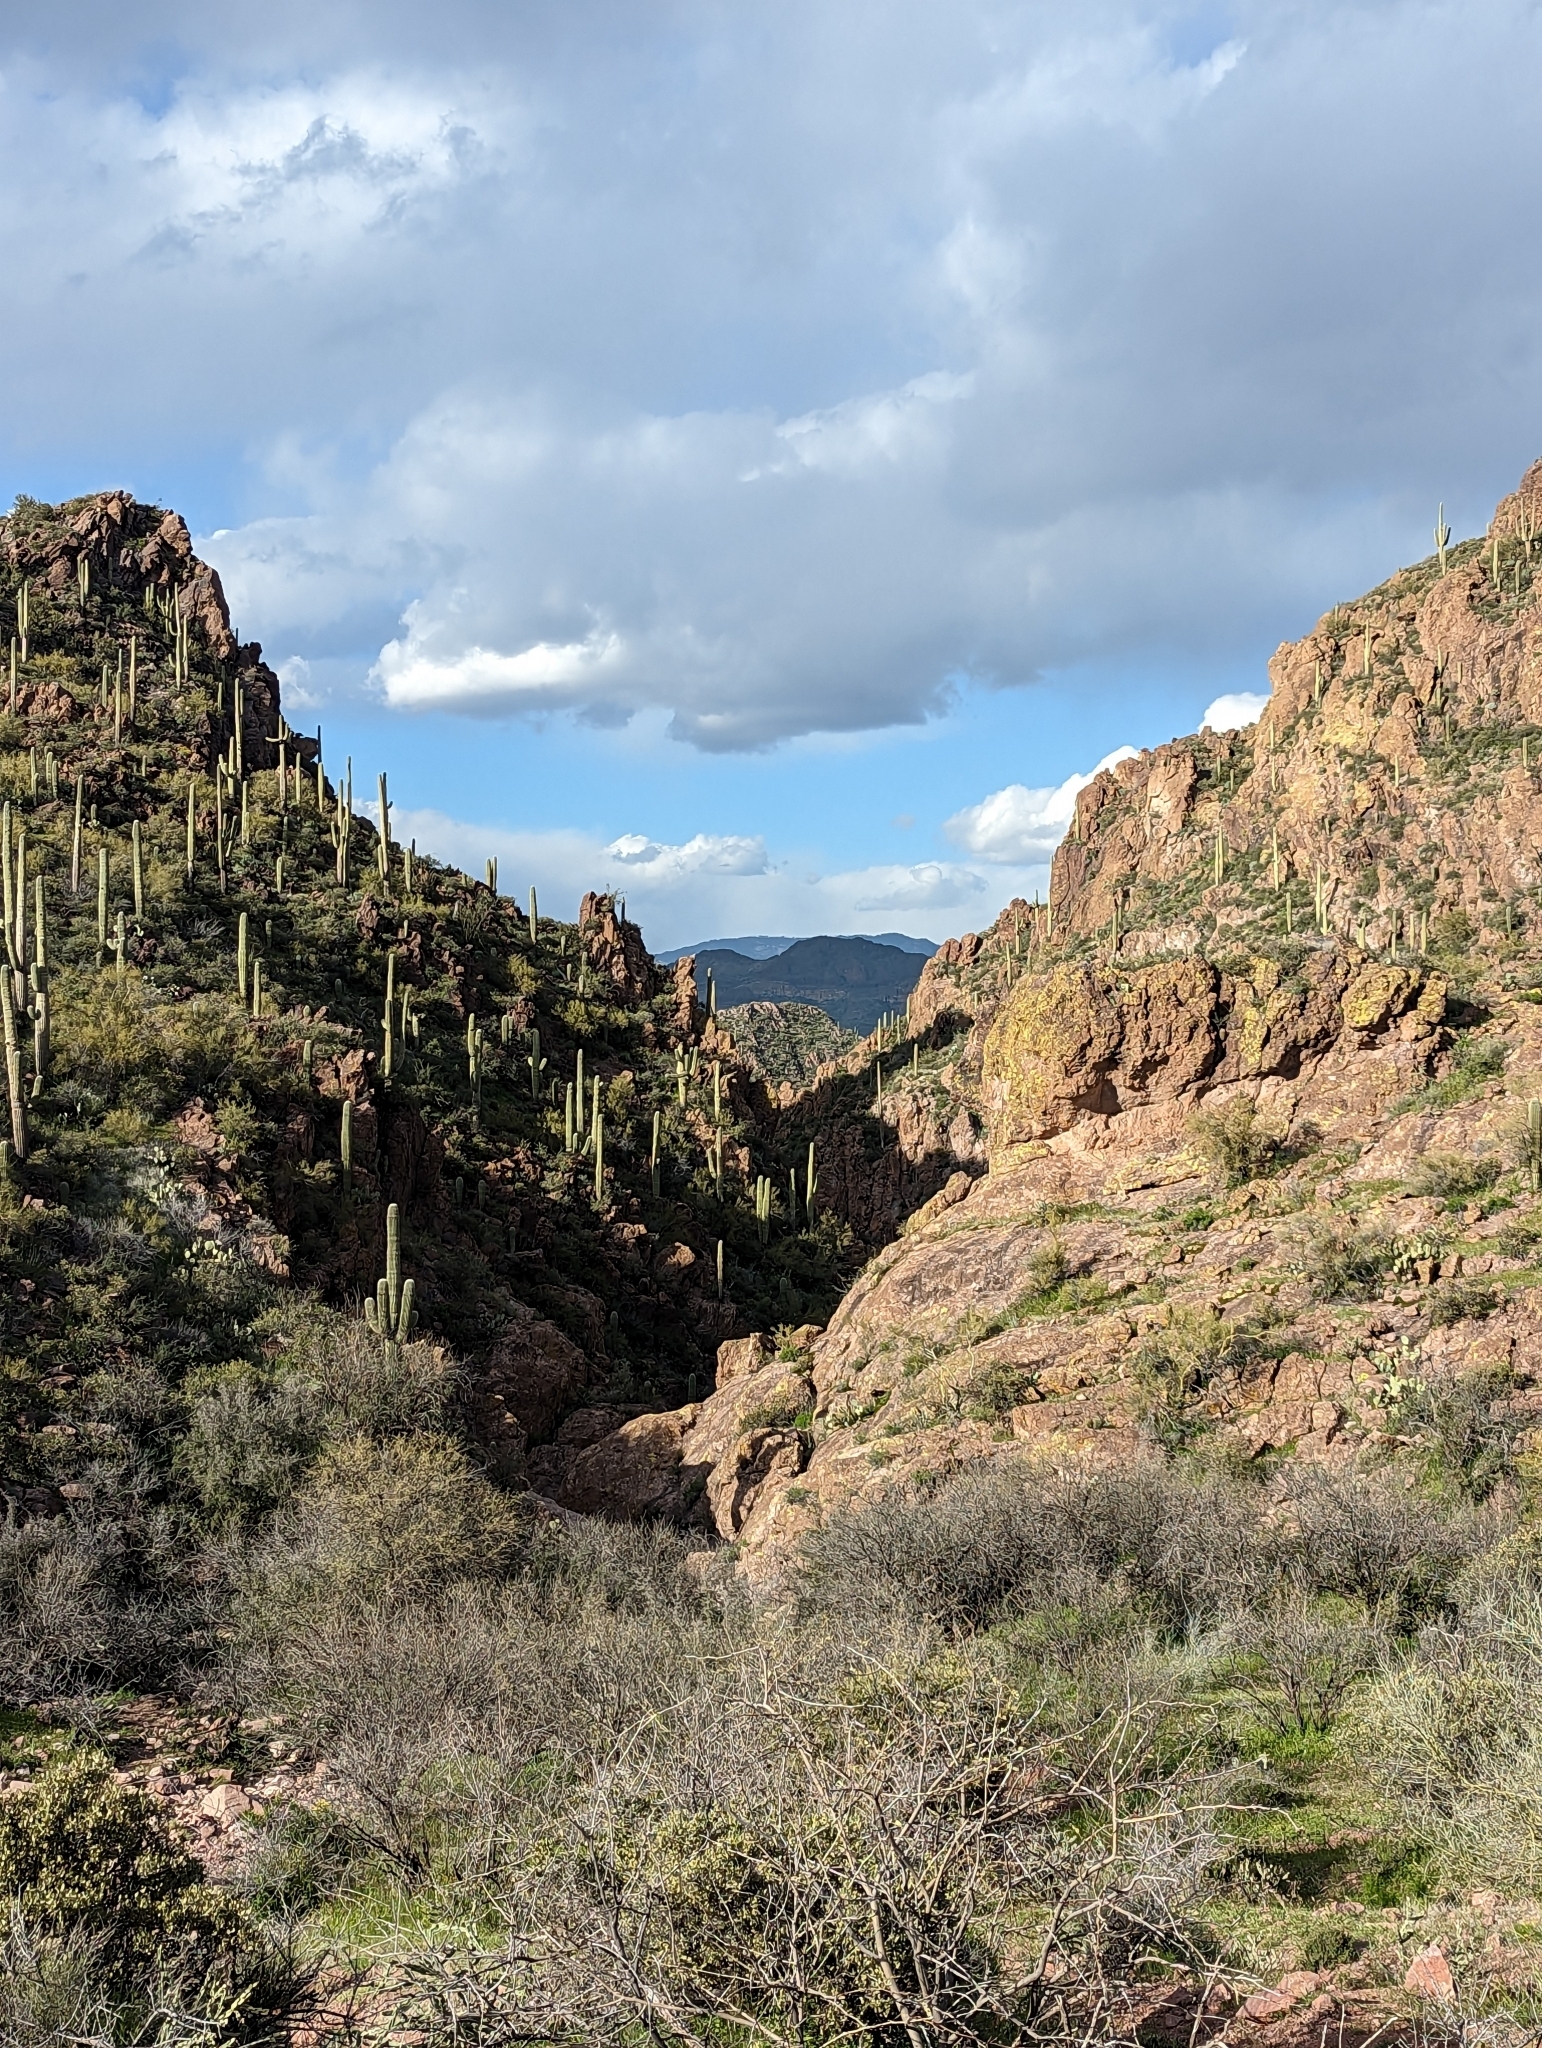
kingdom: Plantae
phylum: Tracheophyta
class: Magnoliopsida
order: Caryophyllales
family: Cactaceae
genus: Carnegiea
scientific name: Carnegiea gigantea
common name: Saguaro
